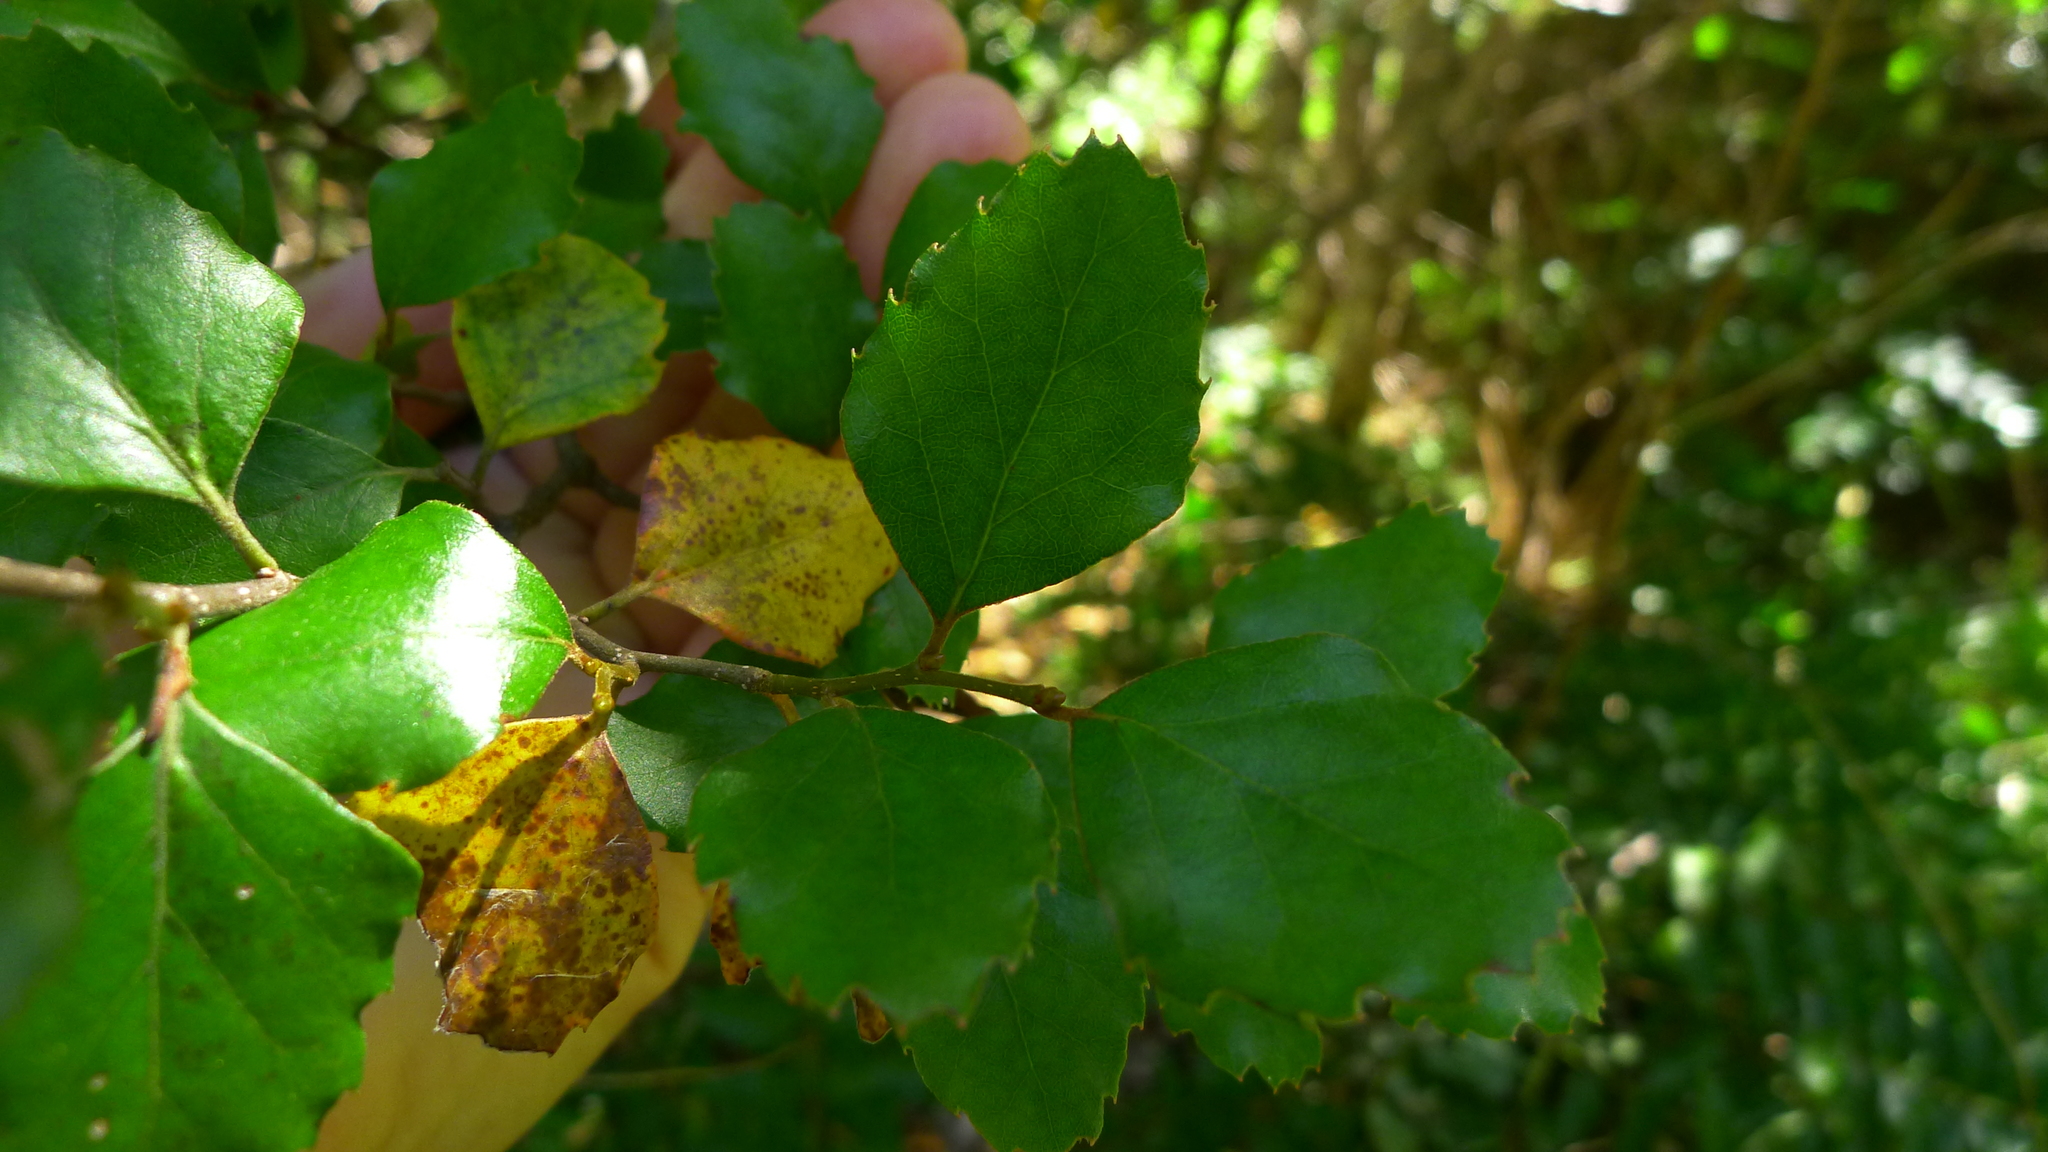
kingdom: Plantae
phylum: Tracheophyta
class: Magnoliopsida
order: Fagales
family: Nothofagaceae
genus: Nothofagus
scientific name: Nothofagus fusca
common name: Red beech
